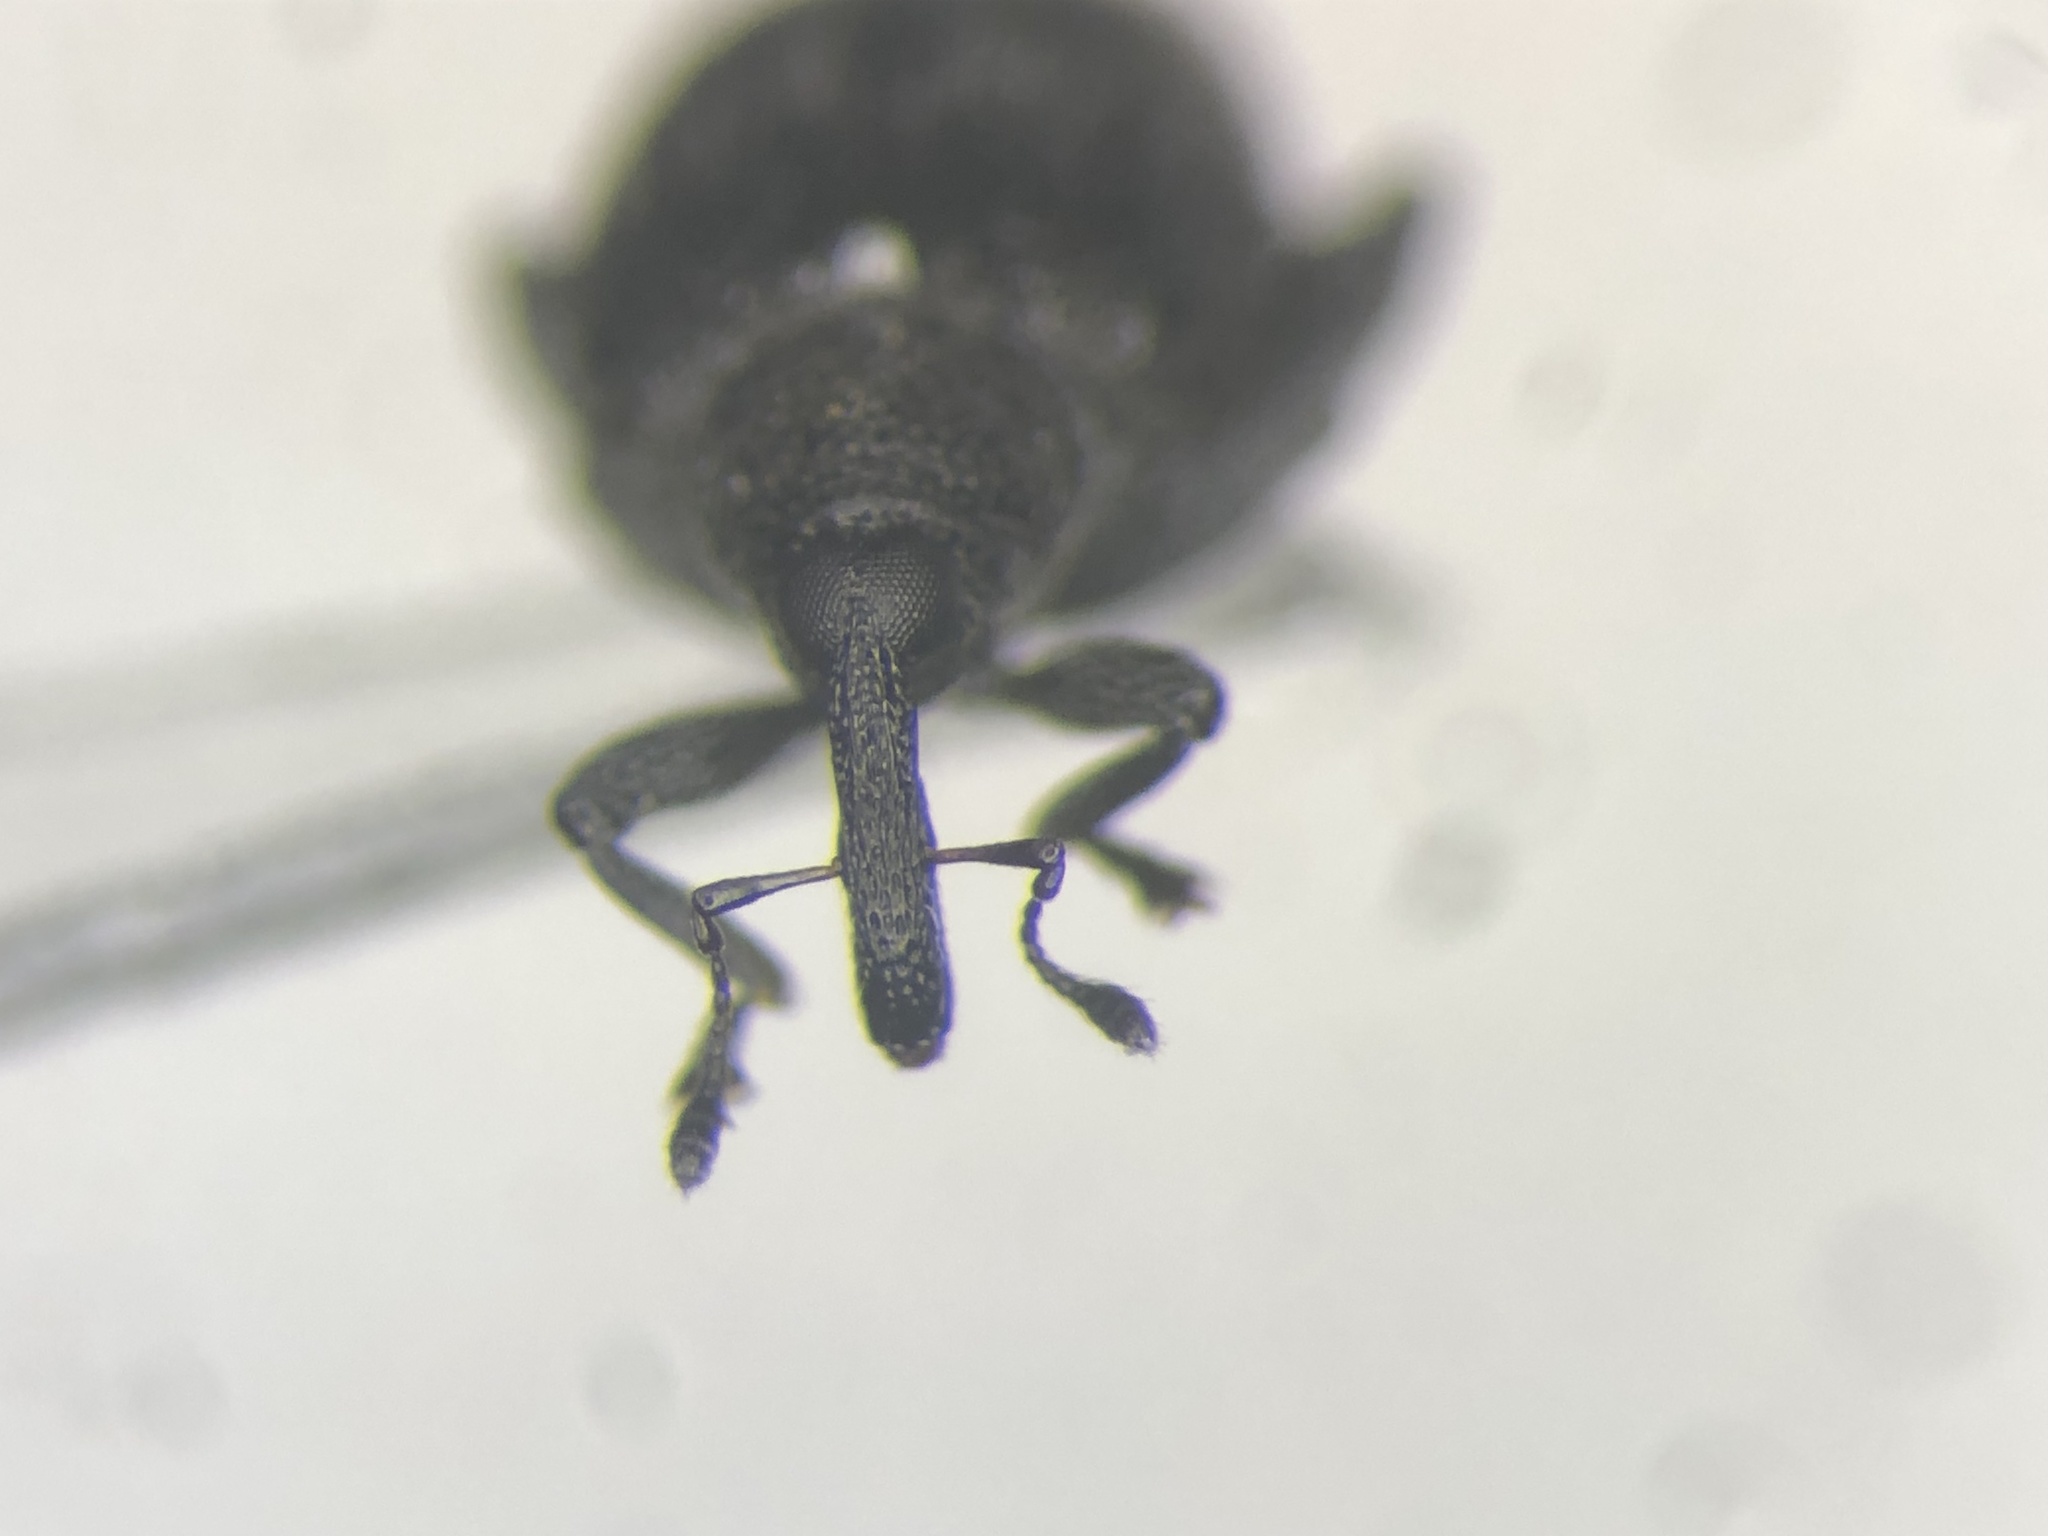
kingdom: Animalia
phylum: Arthropoda
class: Insecta
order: Coleoptera
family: Curculionidae
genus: Rhynchaenus
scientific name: Rhynchaenus niger
